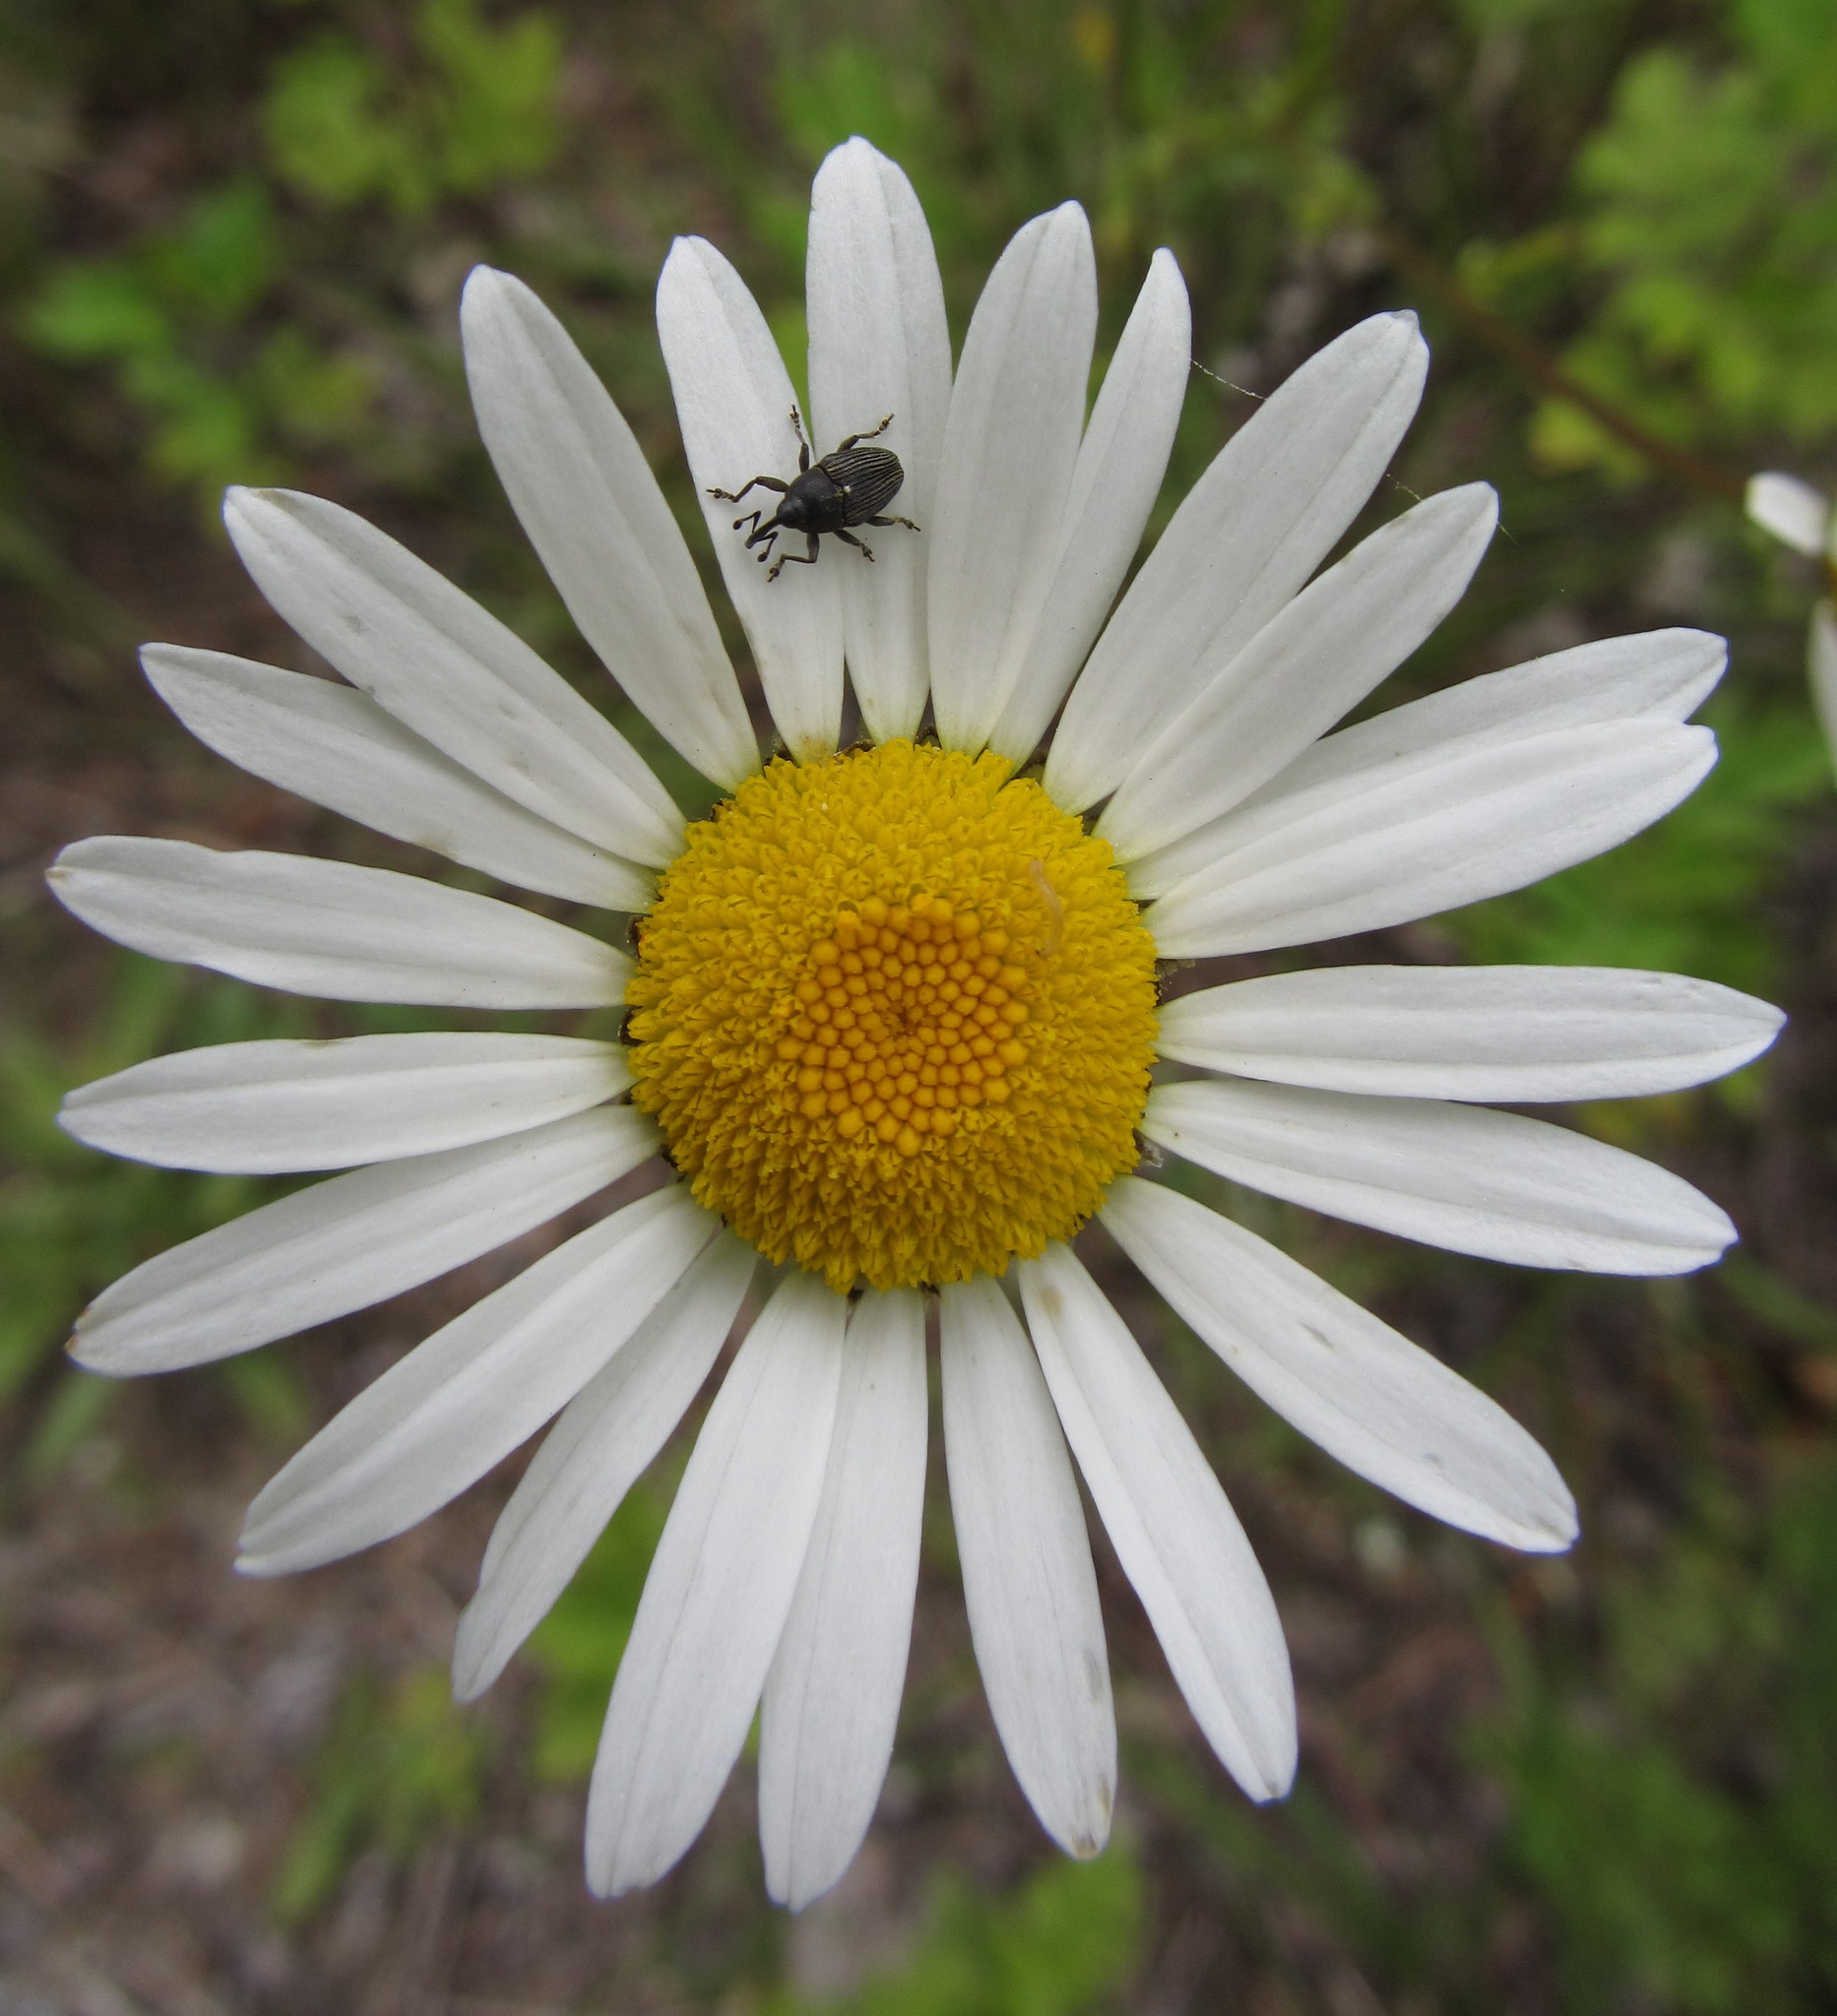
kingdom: Animalia
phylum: Arthropoda
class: Insecta
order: Coleoptera
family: Curculionidae
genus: Odontocorynus
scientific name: Odontocorynus umbellae
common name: Daisy flower weevil
